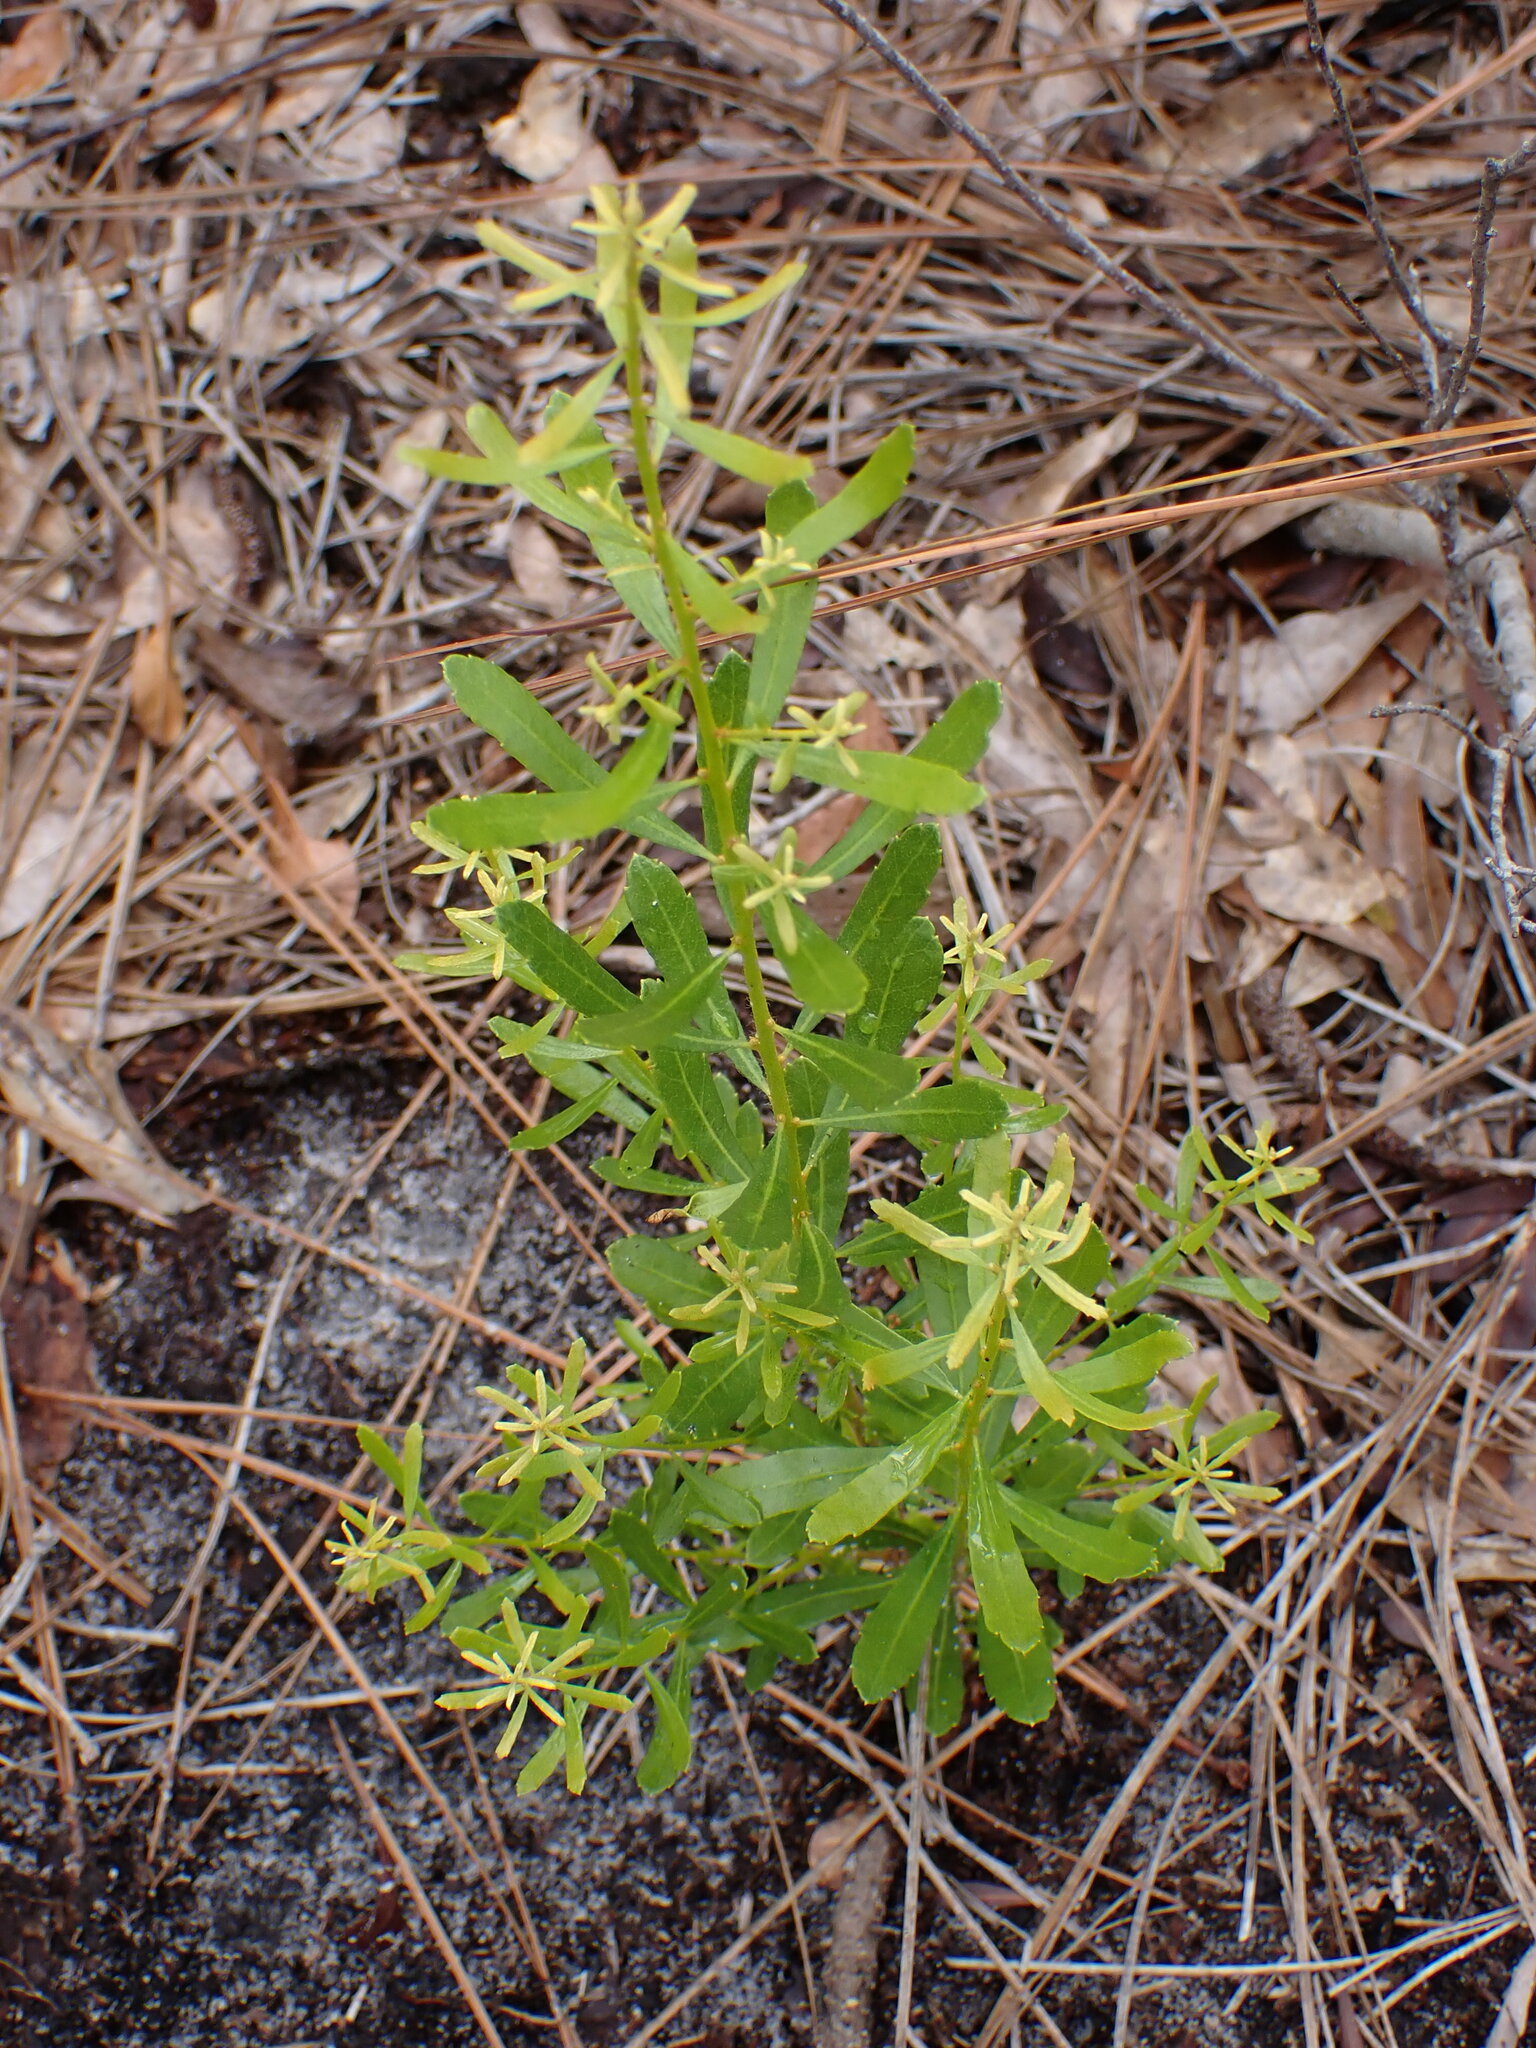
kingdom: Plantae
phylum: Tracheophyta
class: Magnoliopsida
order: Fagales
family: Myricaceae
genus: Morella
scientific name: Morella cerifera
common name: Wax myrtle
